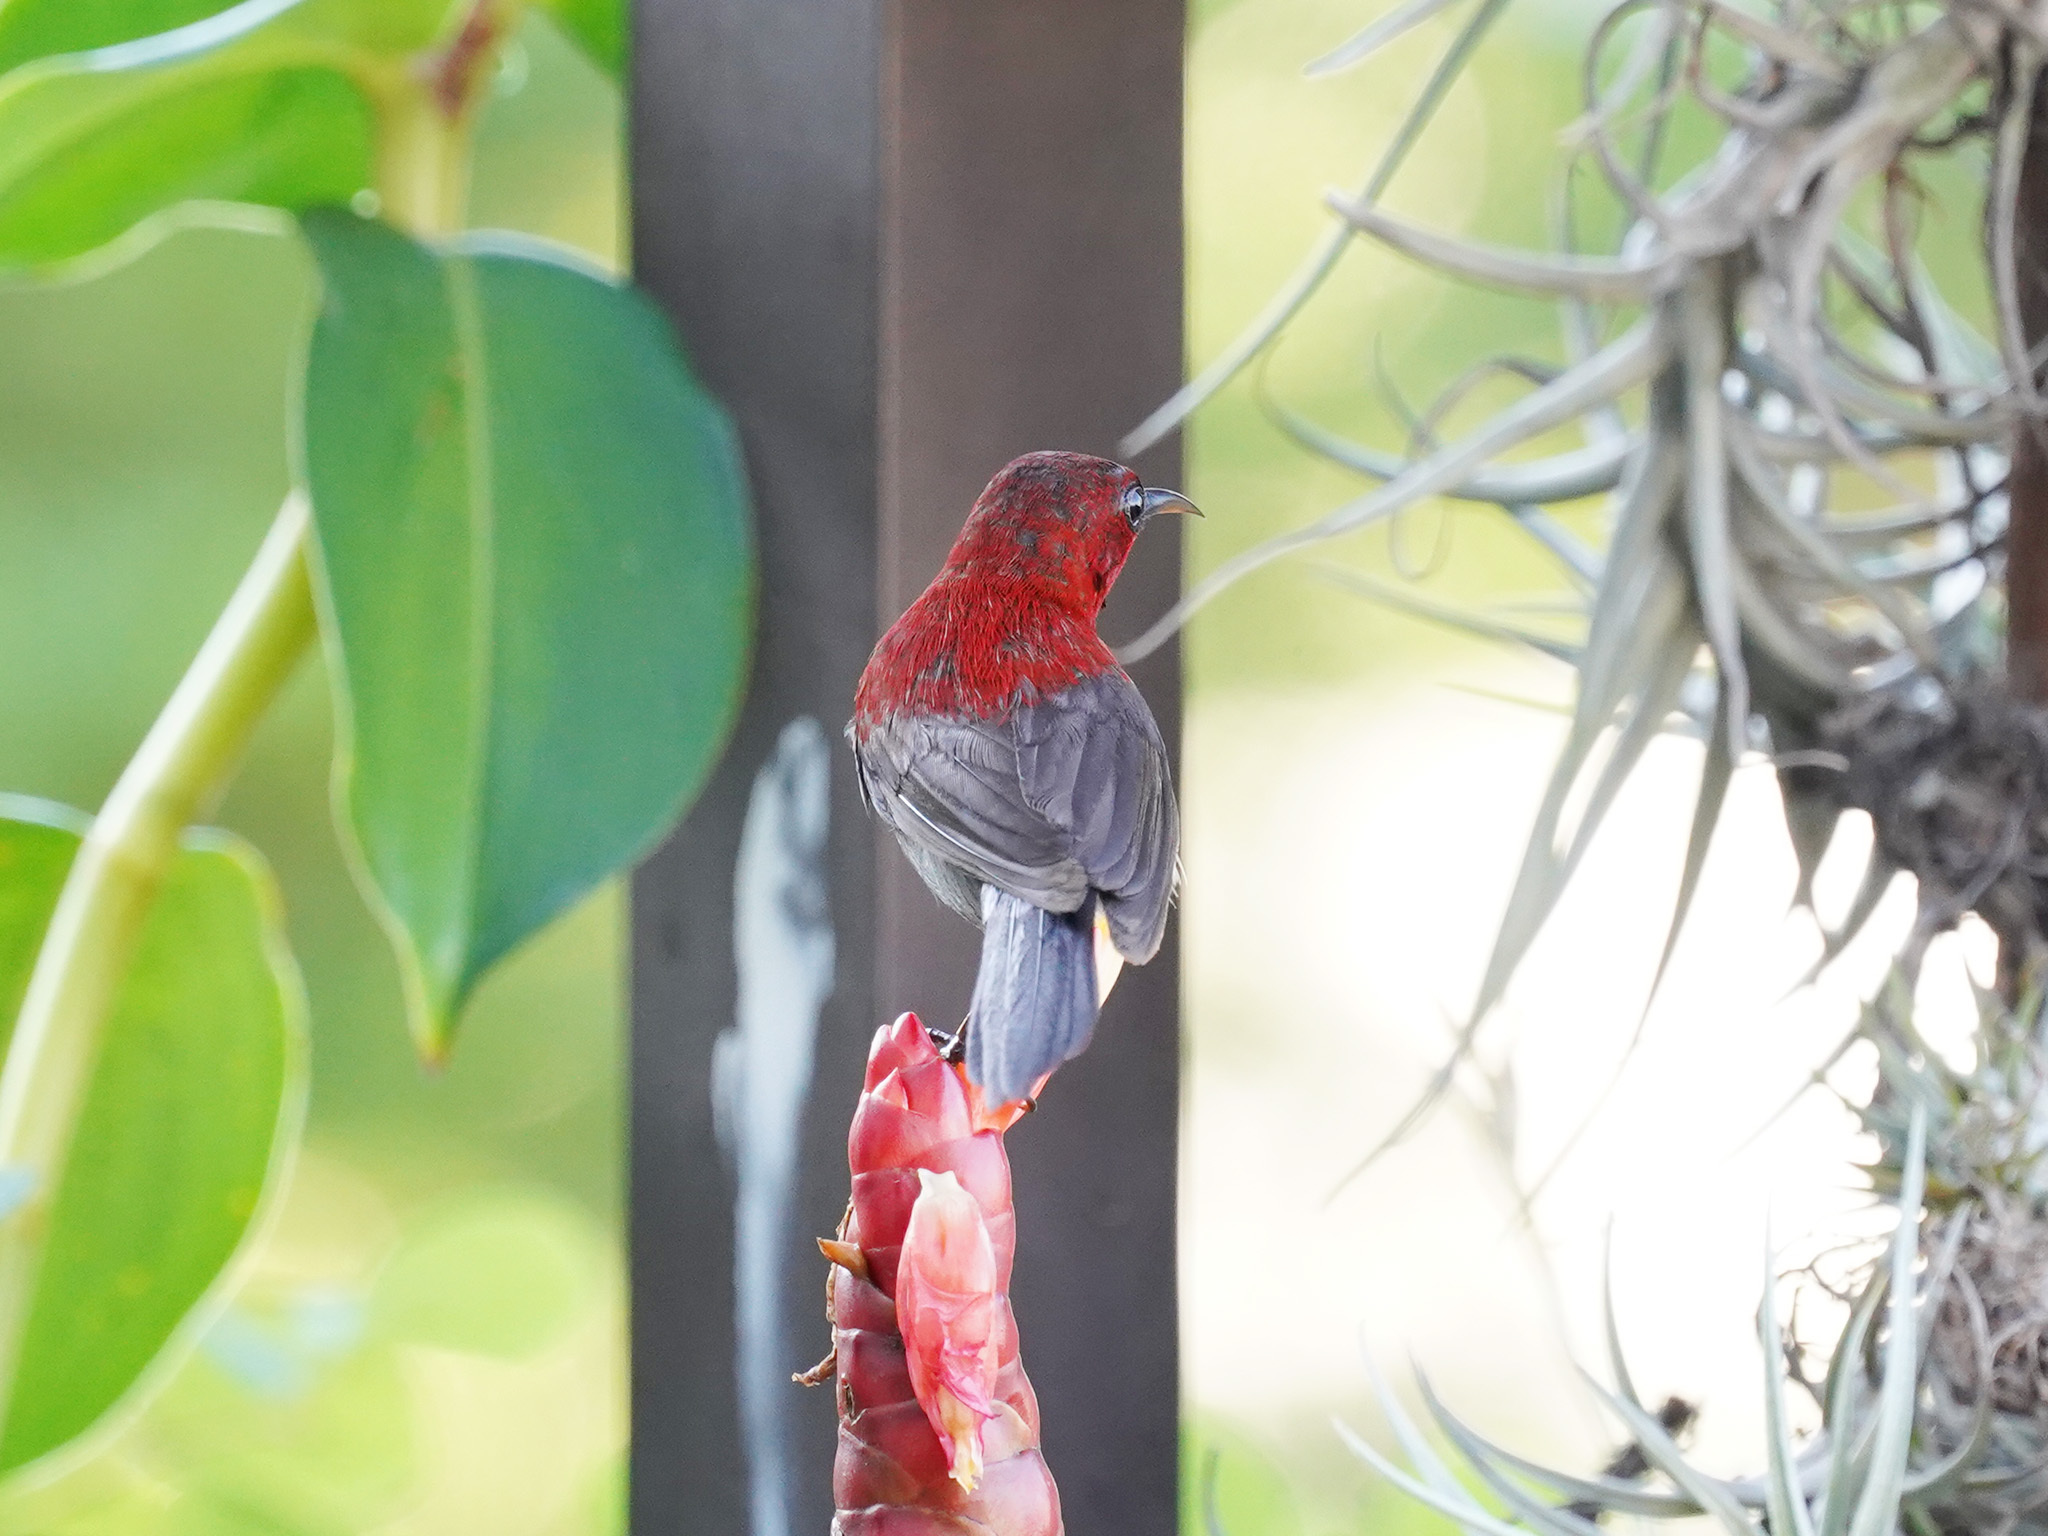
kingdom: Animalia
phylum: Chordata
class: Aves
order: Passeriformes
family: Nectariniidae
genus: Aethopyga
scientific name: Aethopyga siparaja
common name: Crimson sunbird
